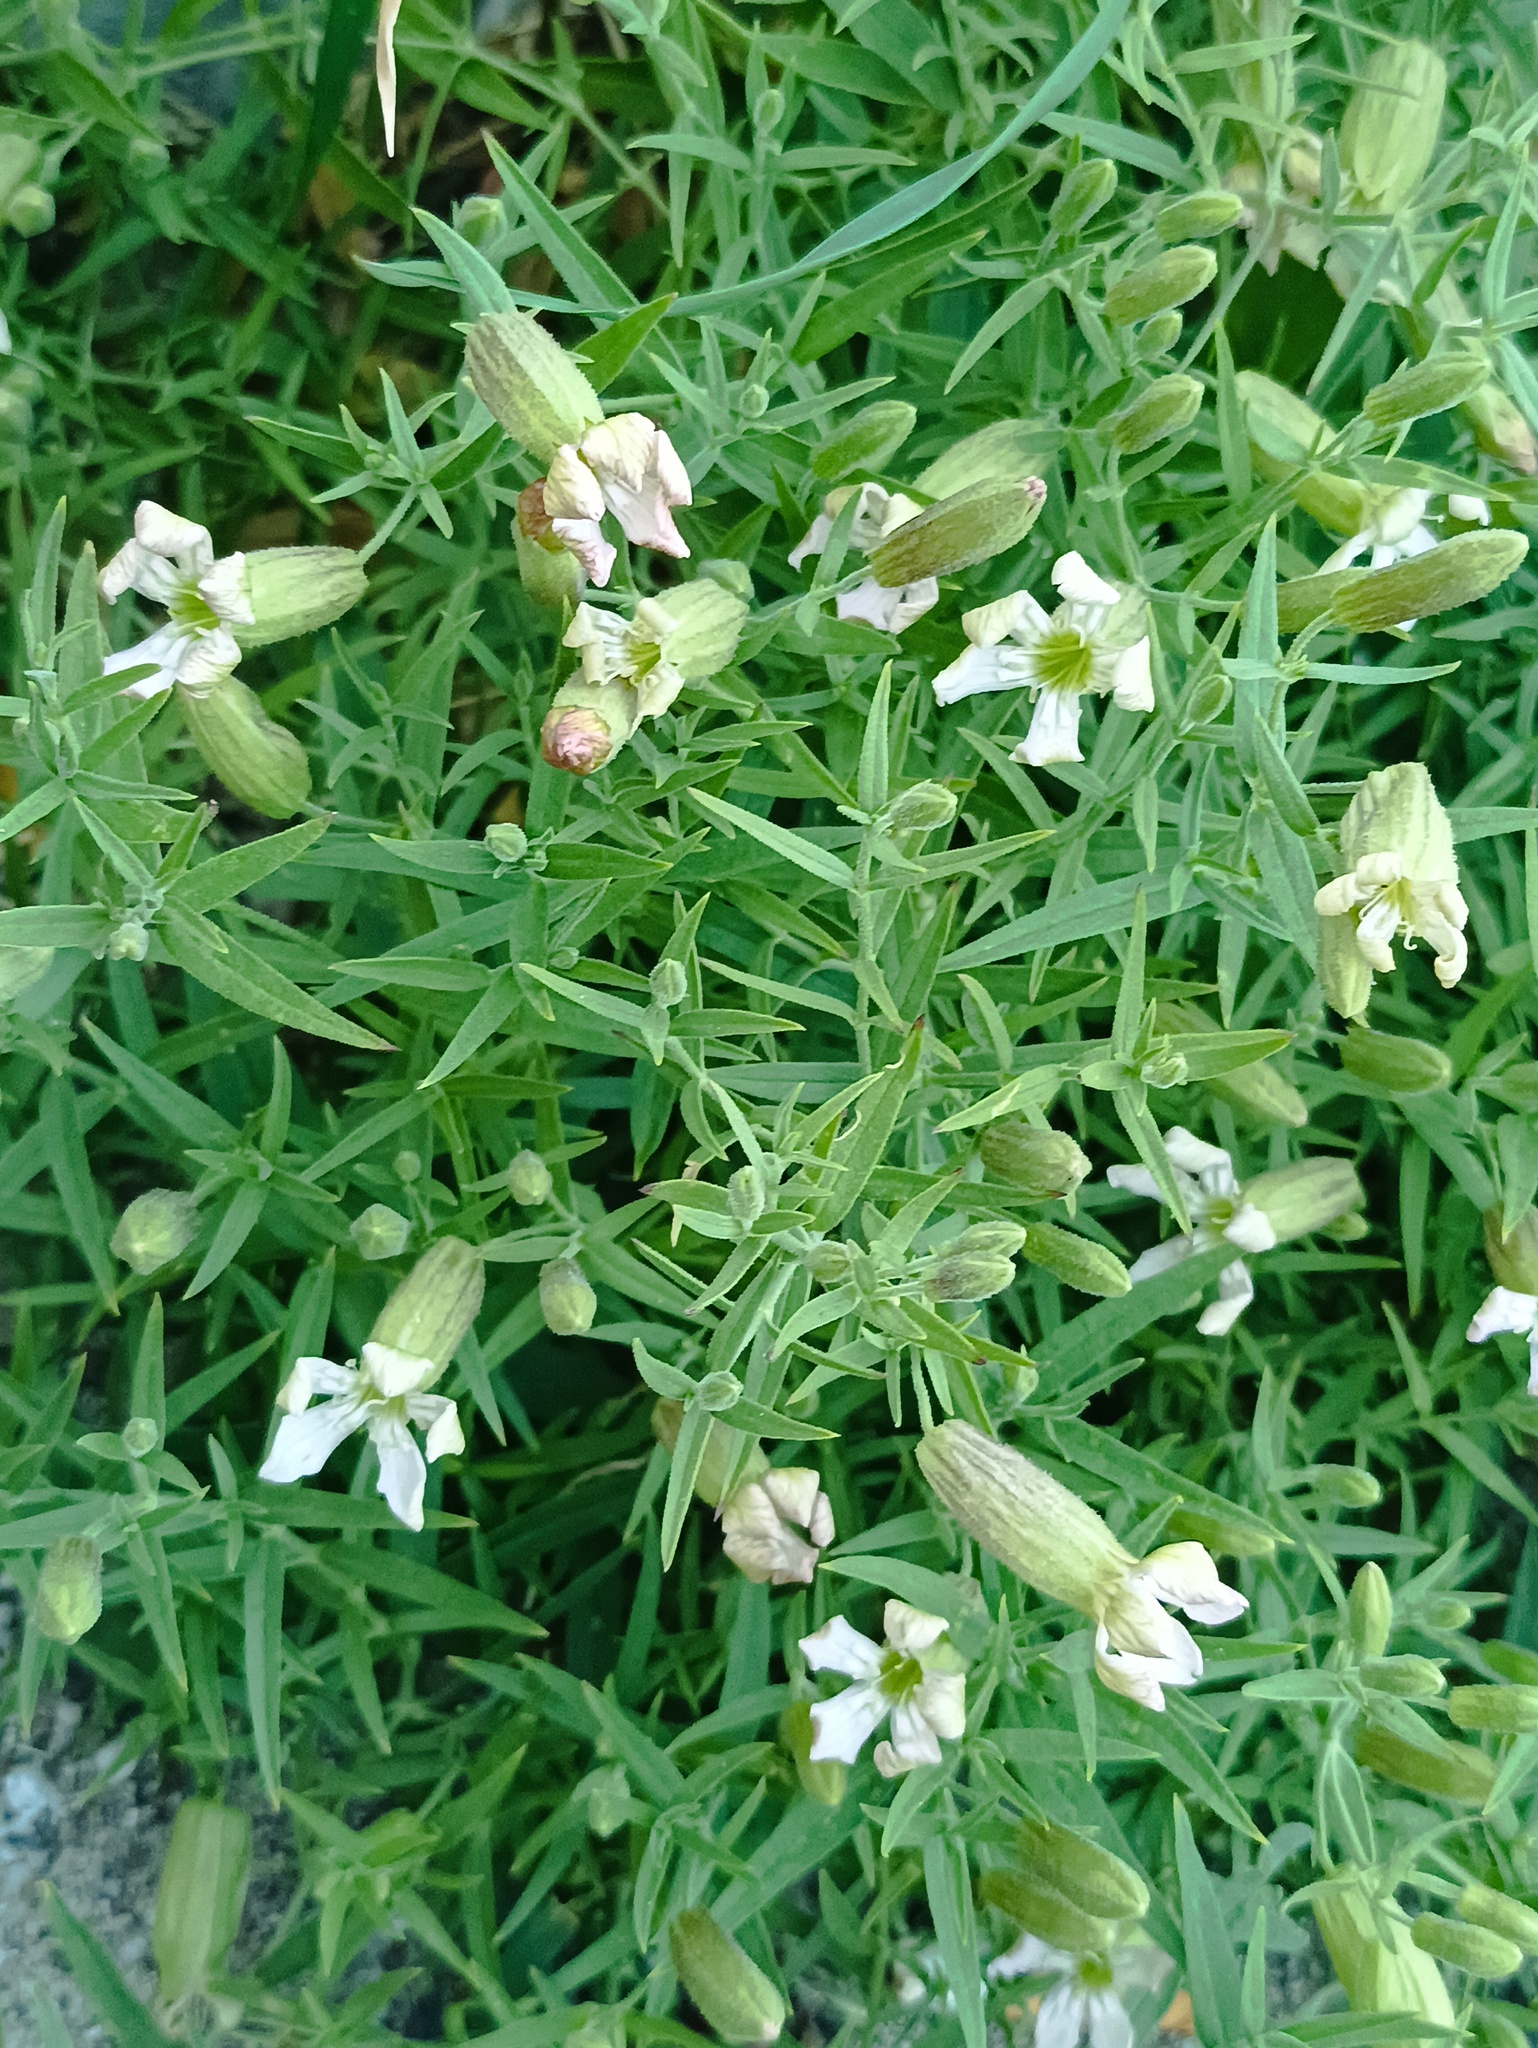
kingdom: Plantae
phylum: Tracheophyta
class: Magnoliopsida
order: Caryophyllales
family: Caryophyllaceae
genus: Silene
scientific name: Silene procumbens
